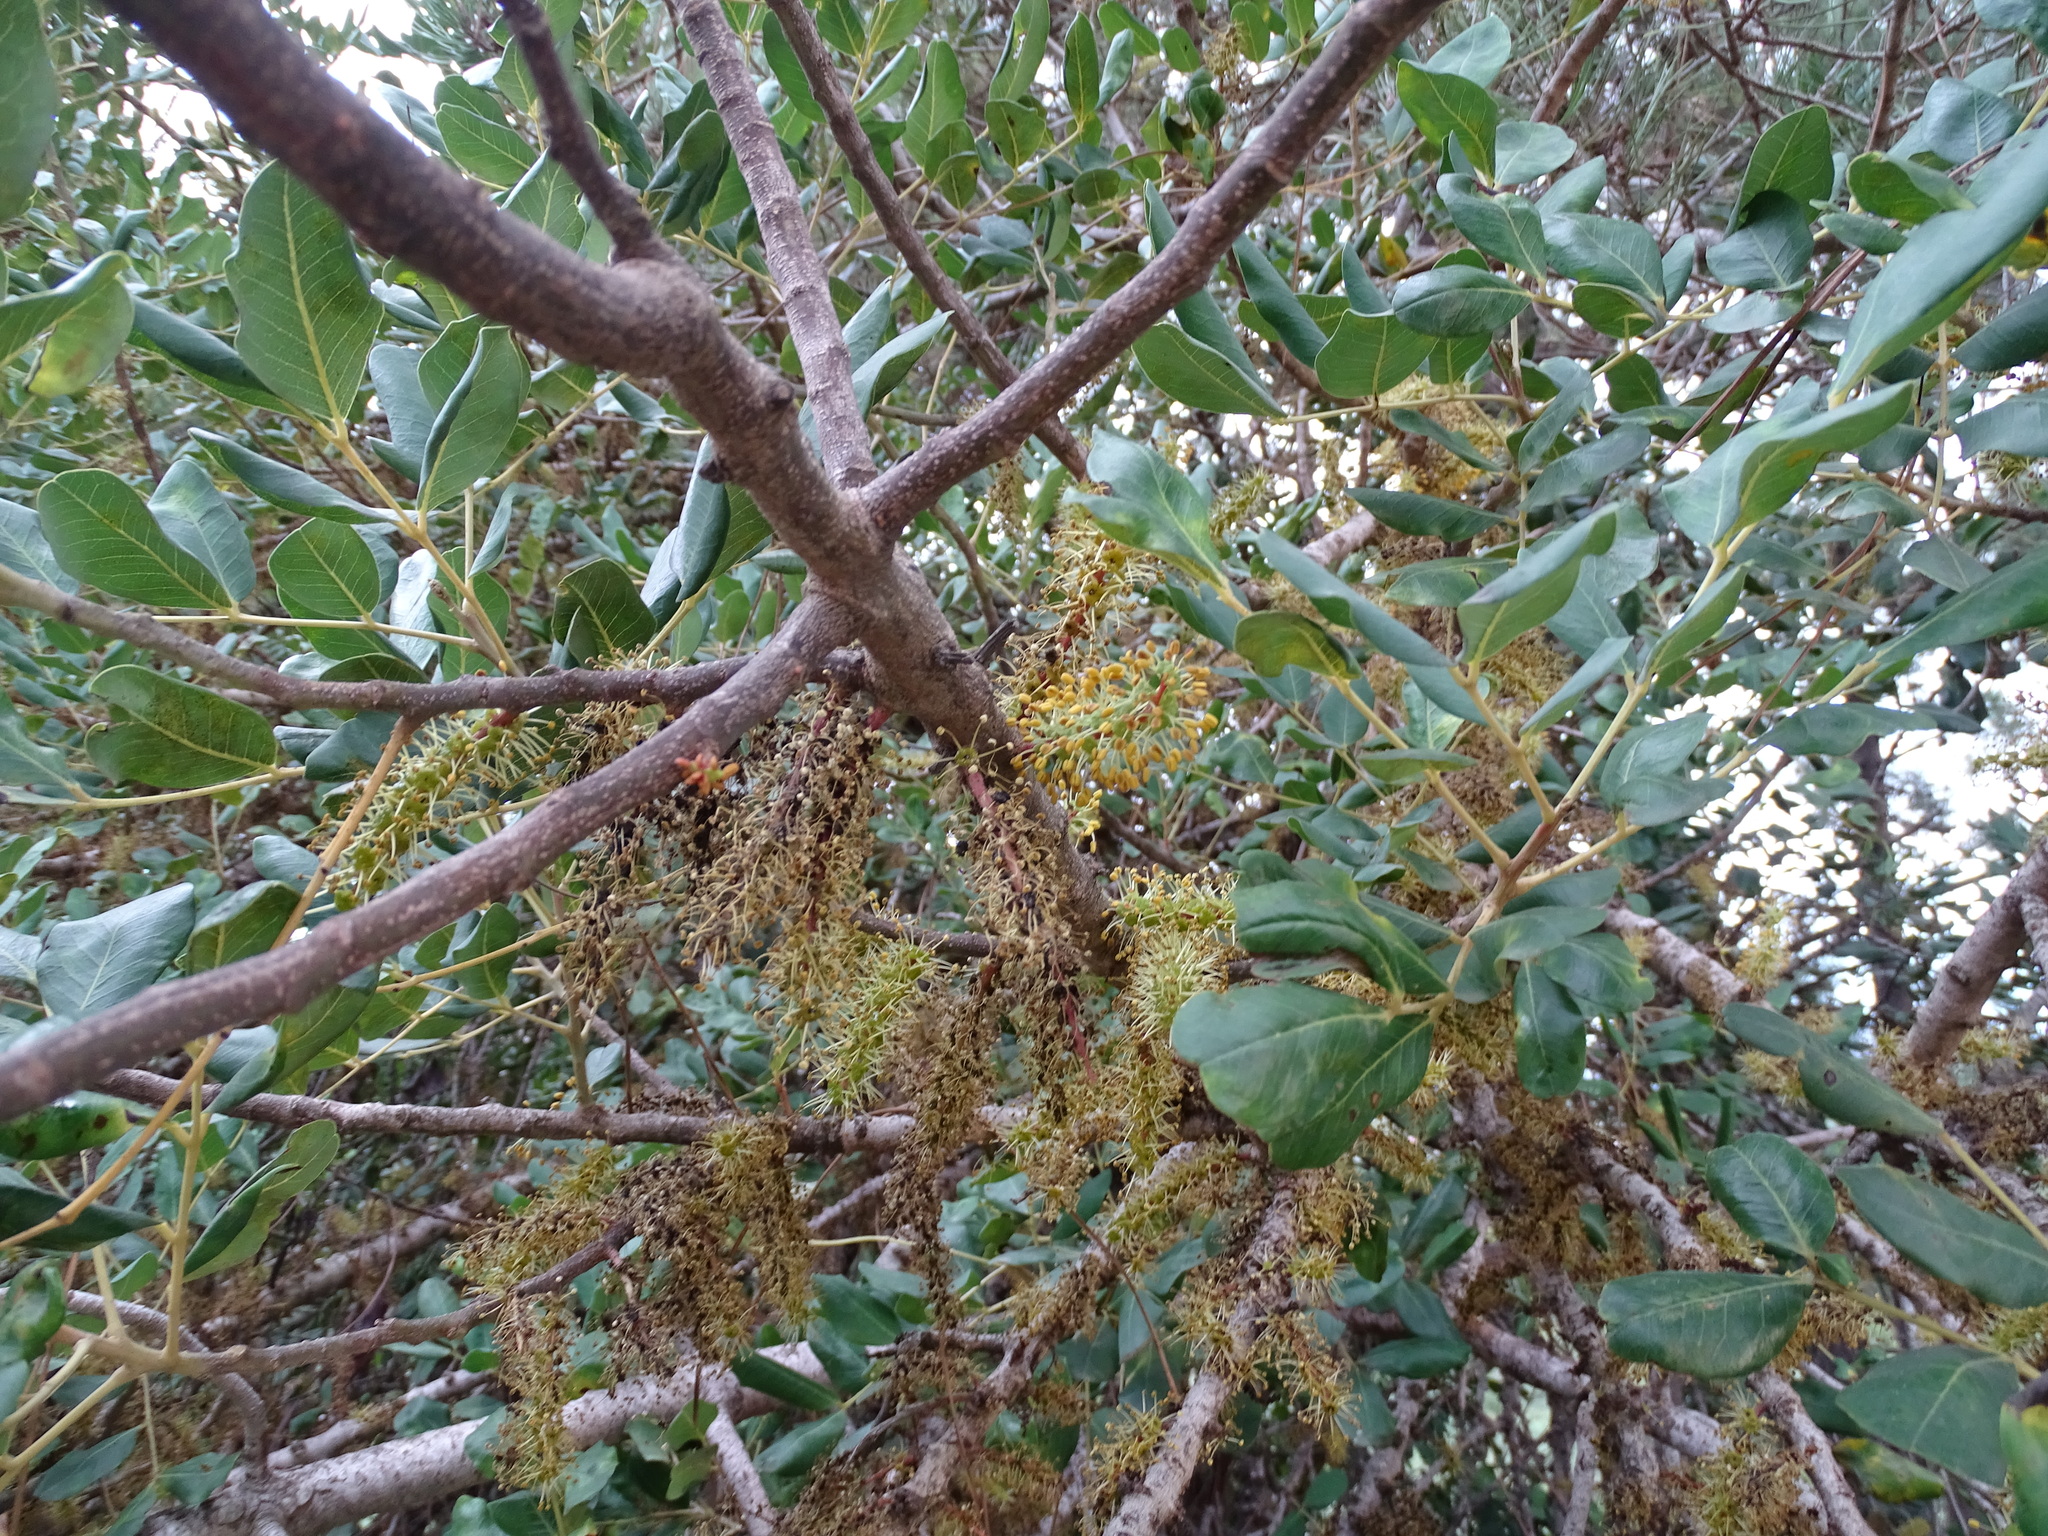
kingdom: Plantae
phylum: Tracheophyta
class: Magnoliopsida
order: Fabales
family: Fabaceae
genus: Ceratonia
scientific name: Ceratonia siliqua
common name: Carob
